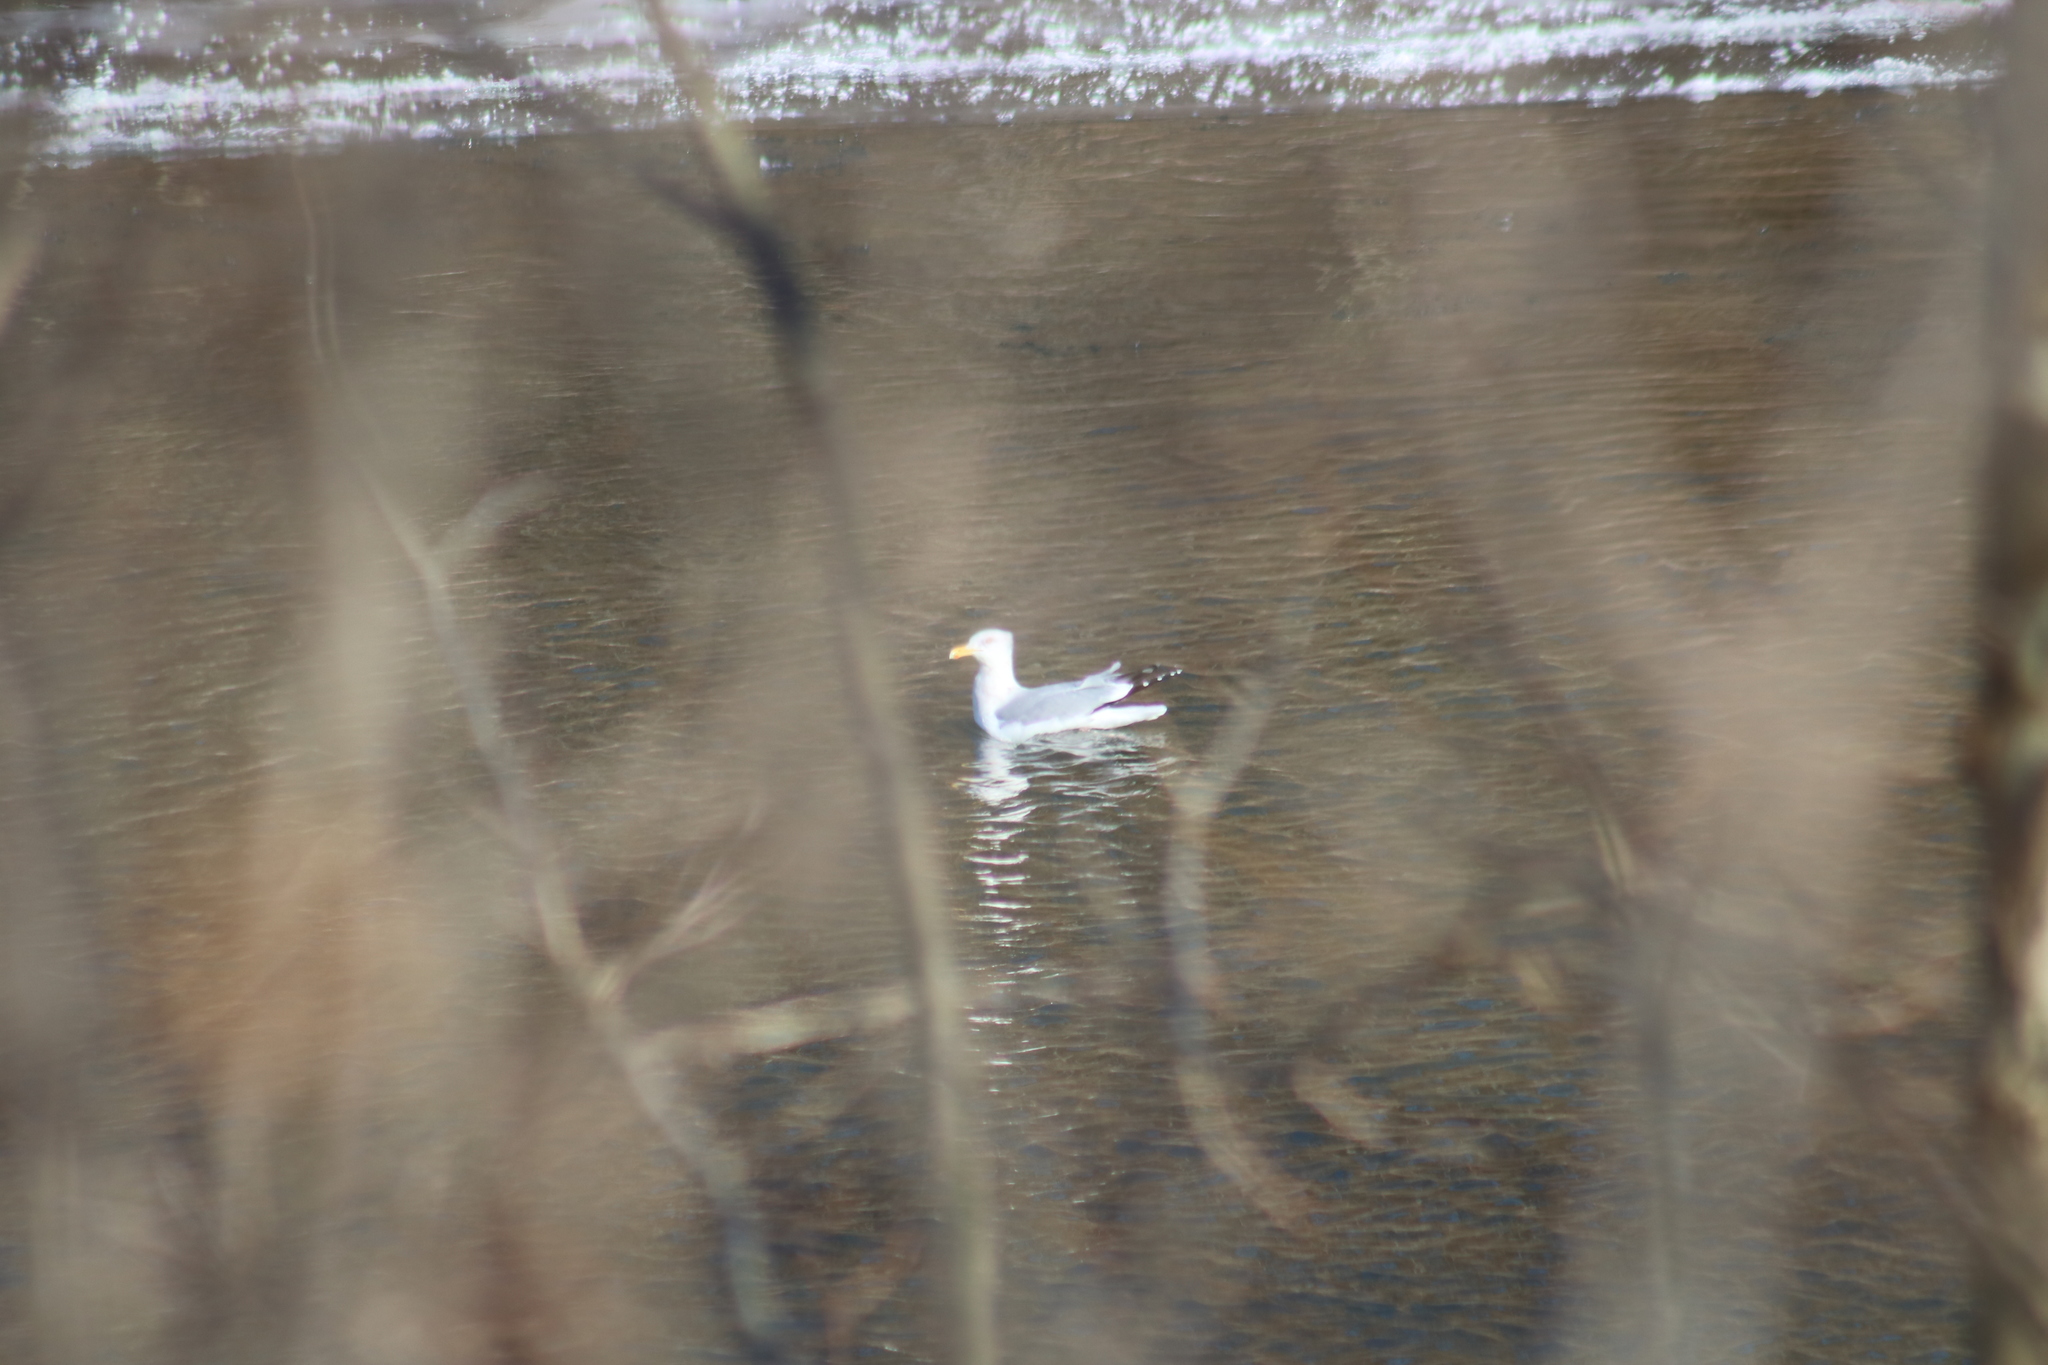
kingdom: Animalia
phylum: Chordata
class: Aves
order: Charadriiformes
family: Laridae
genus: Larus
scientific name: Larus argentatus
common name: Herring gull
